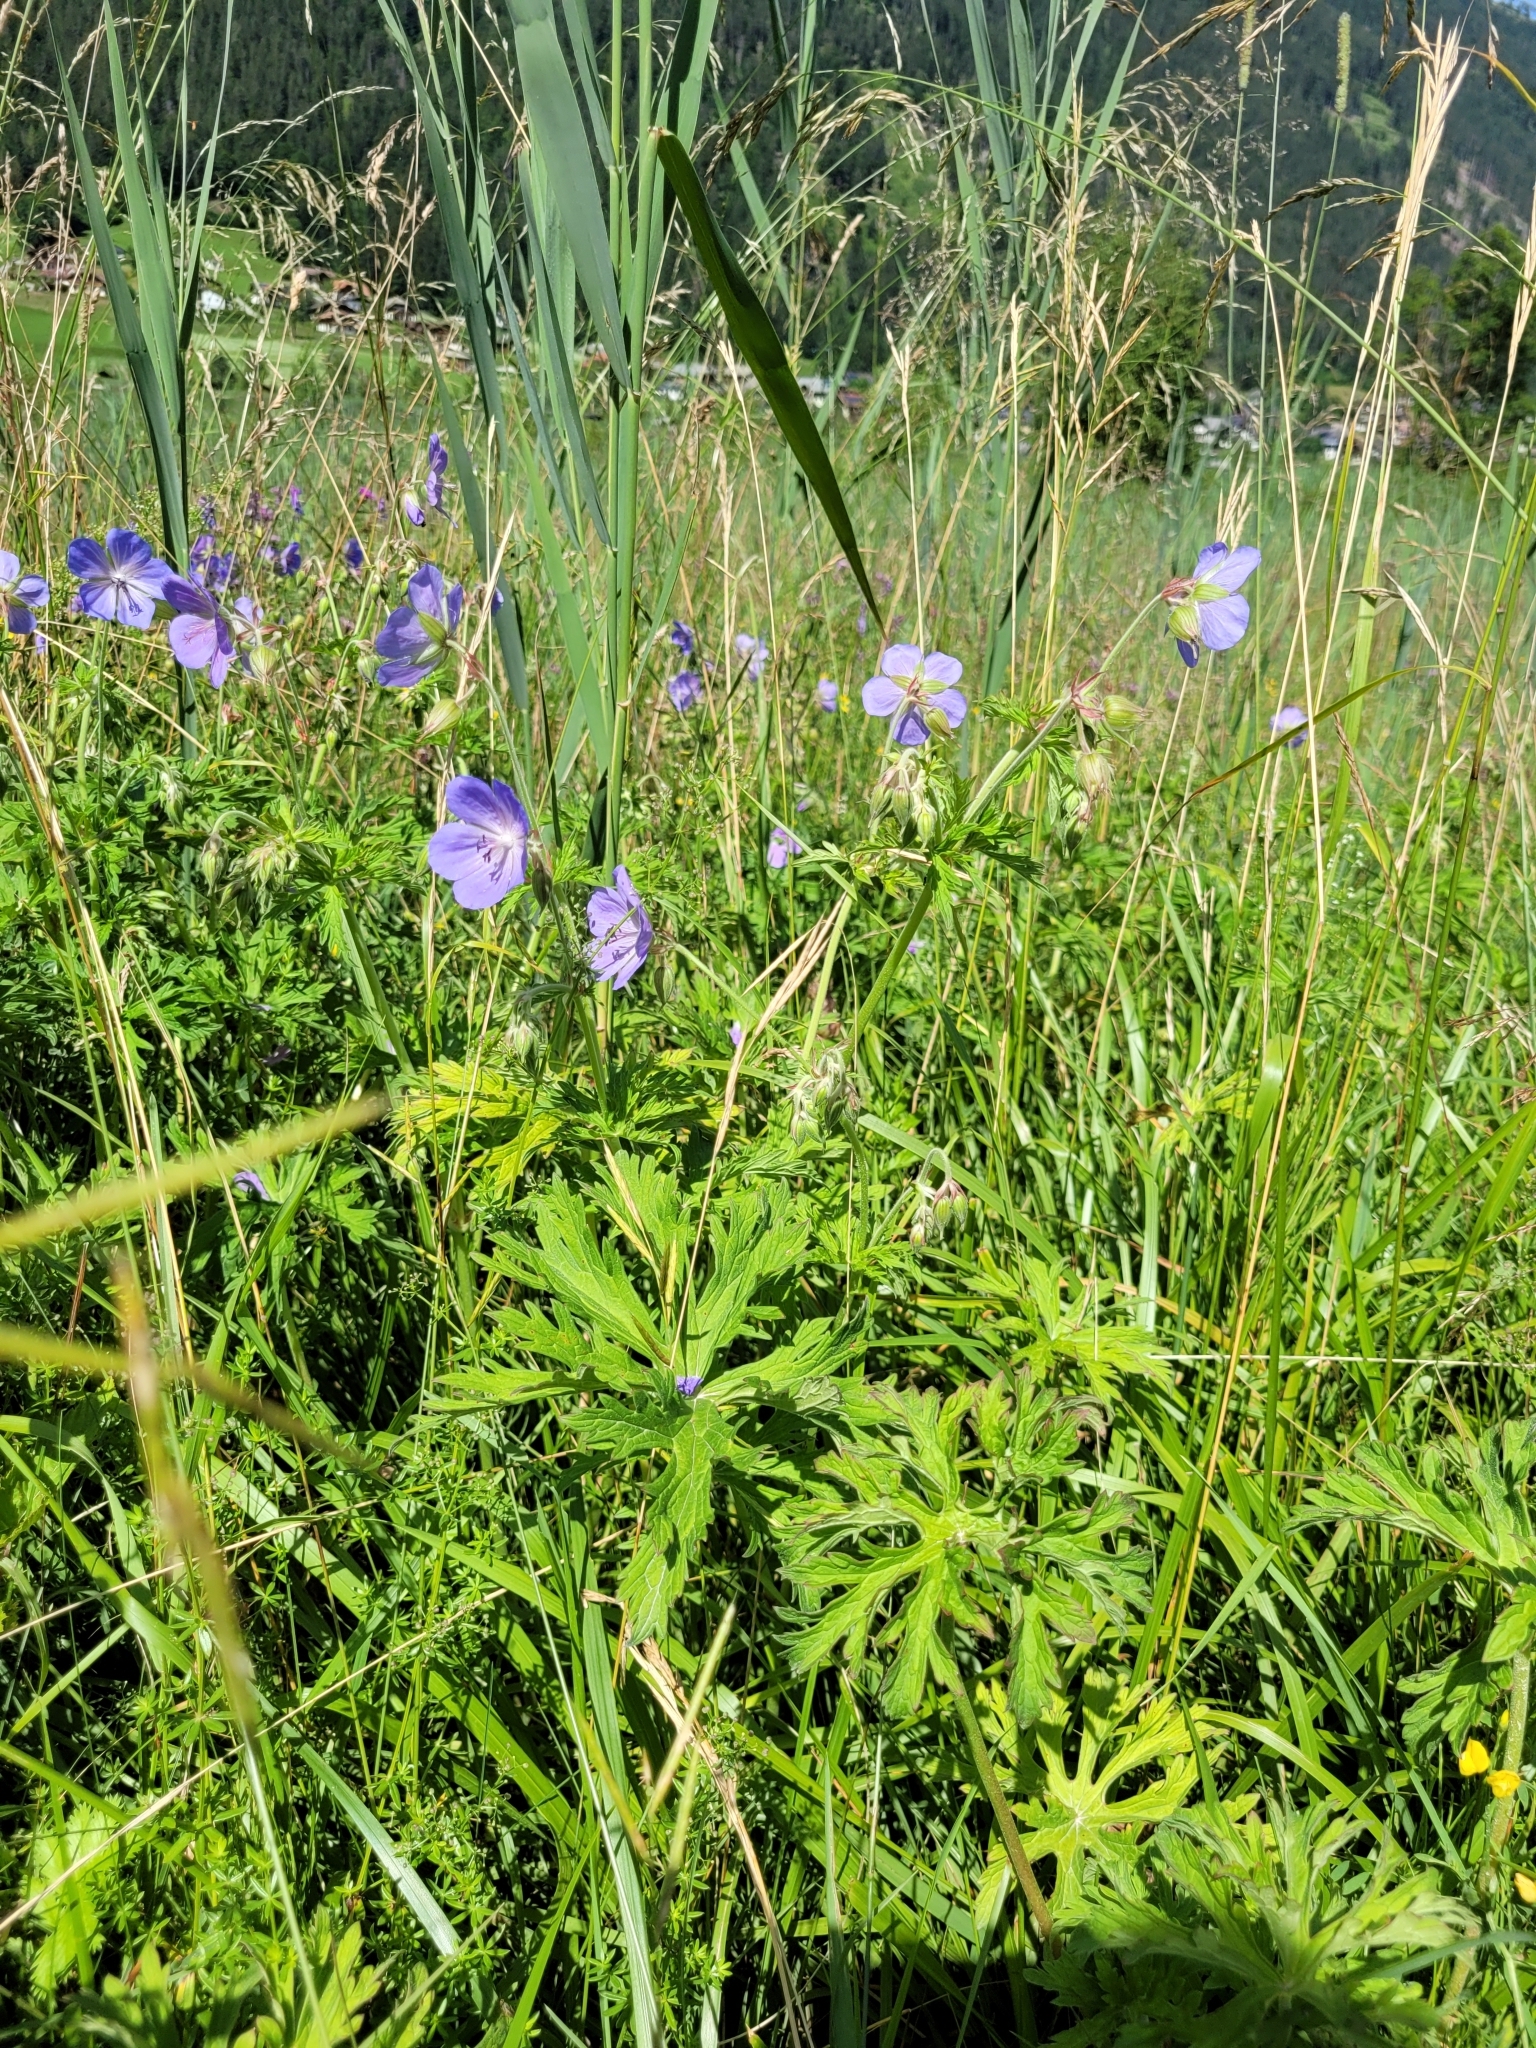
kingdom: Plantae
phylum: Tracheophyta
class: Magnoliopsida
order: Geraniales
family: Geraniaceae
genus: Geranium
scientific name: Geranium pratense
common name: Meadow crane's-bill
